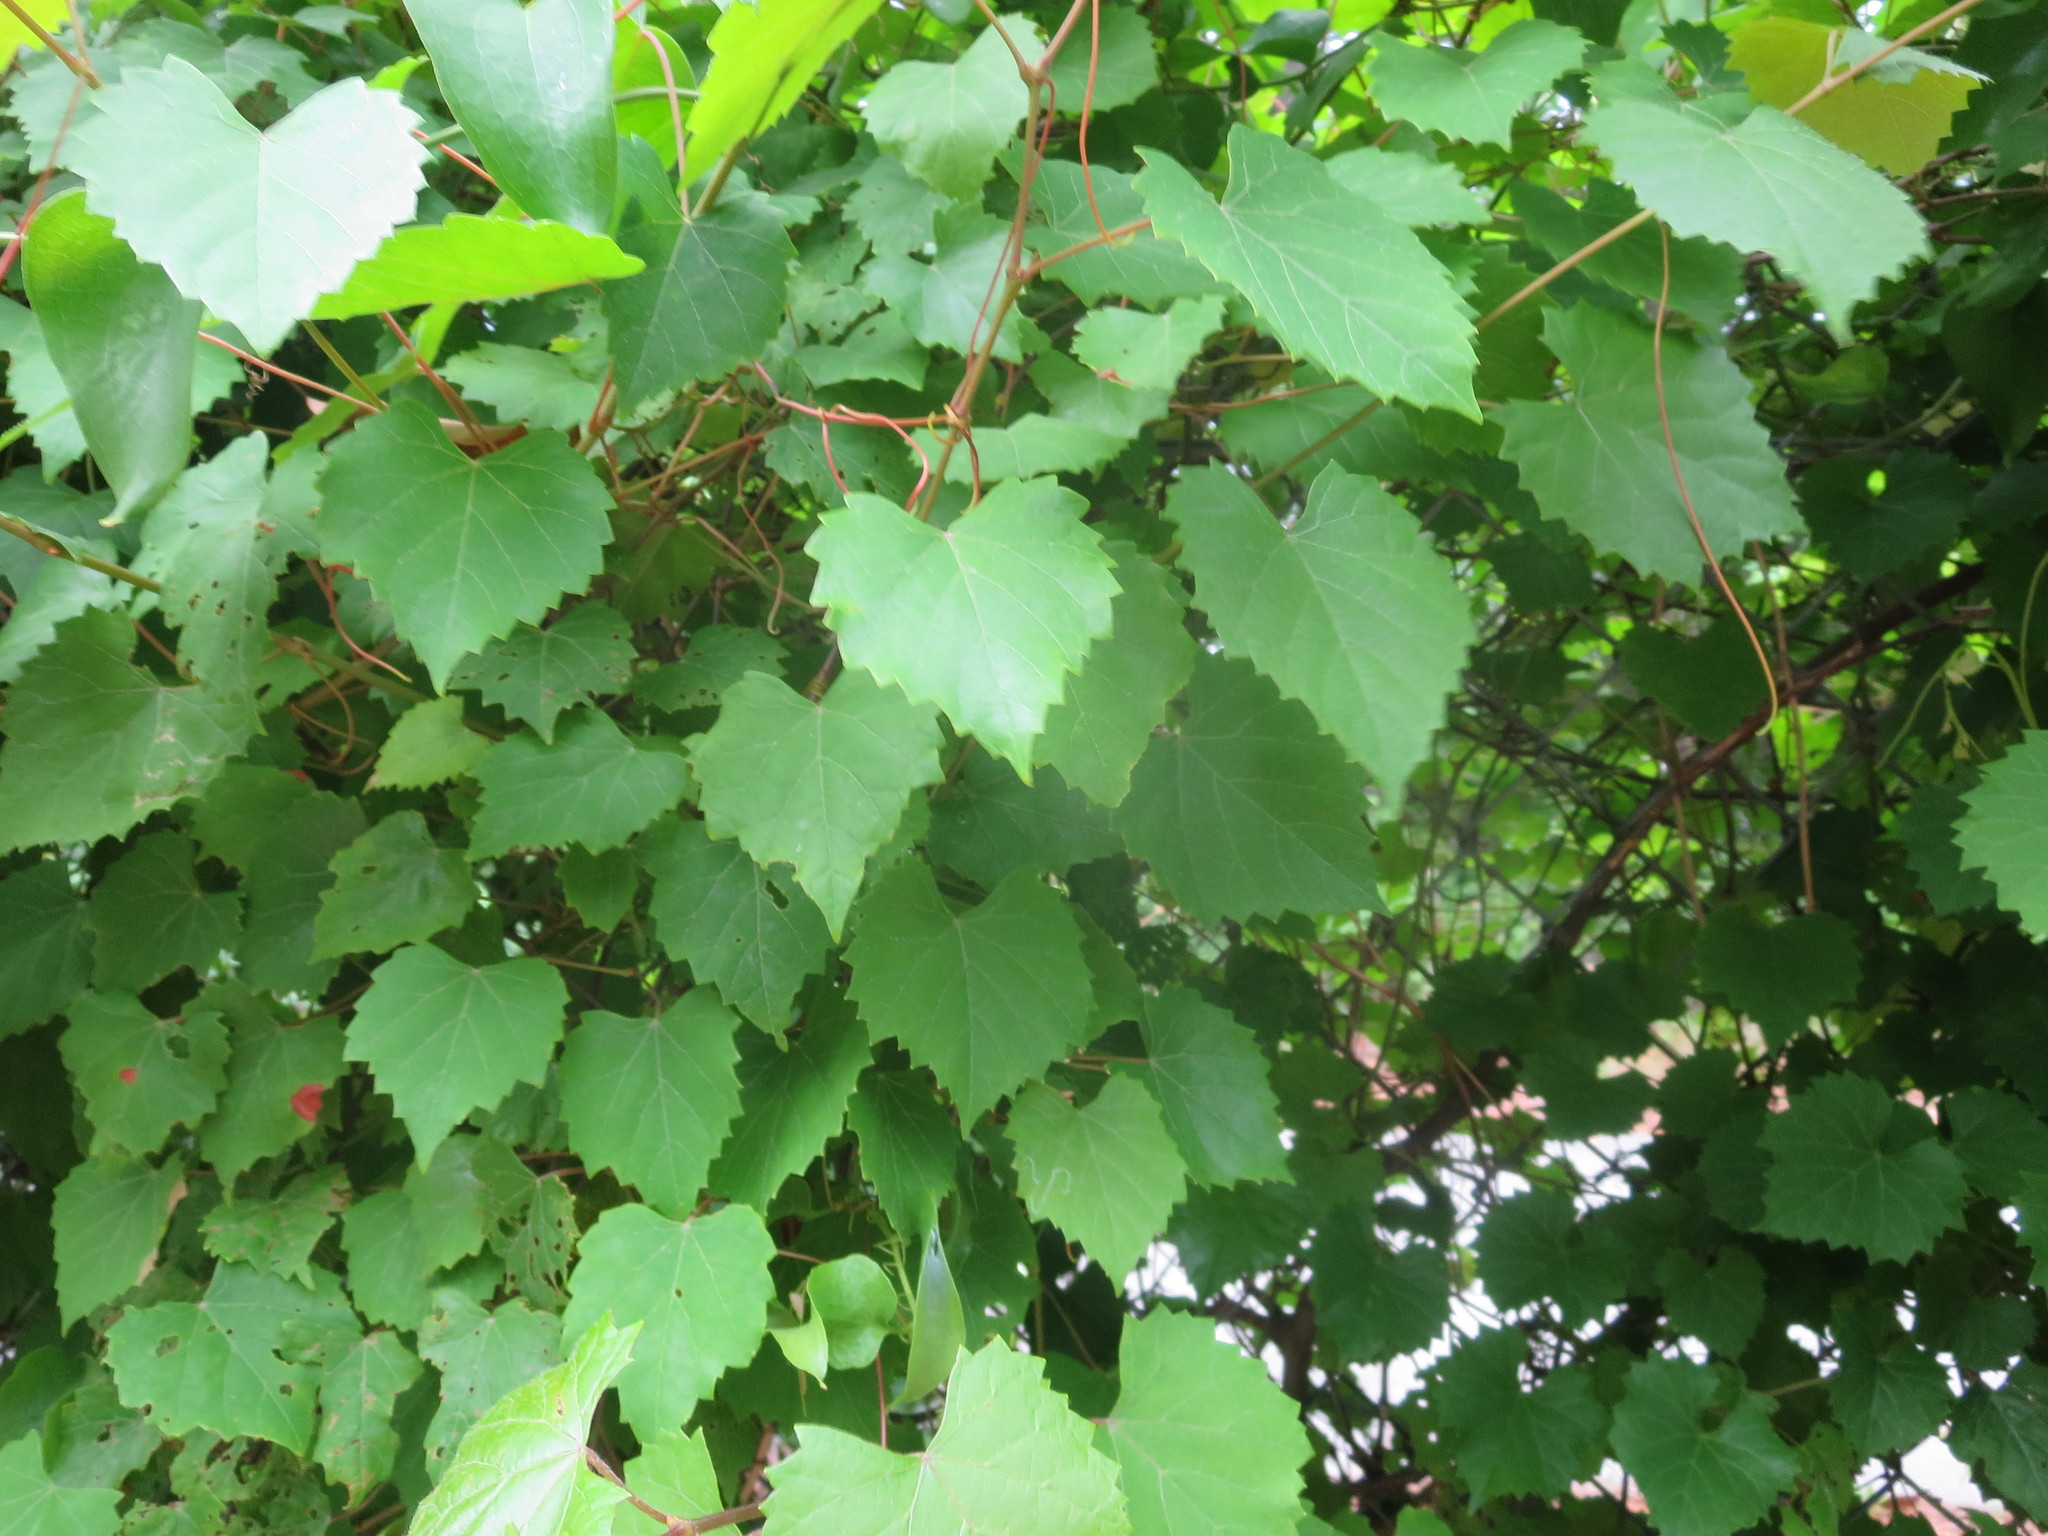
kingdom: Plantae
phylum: Tracheophyta
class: Magnoliopsida
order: Vitales
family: Vitaceae
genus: Vitis
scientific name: Vitis rotundifolia
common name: Muscadine grape
